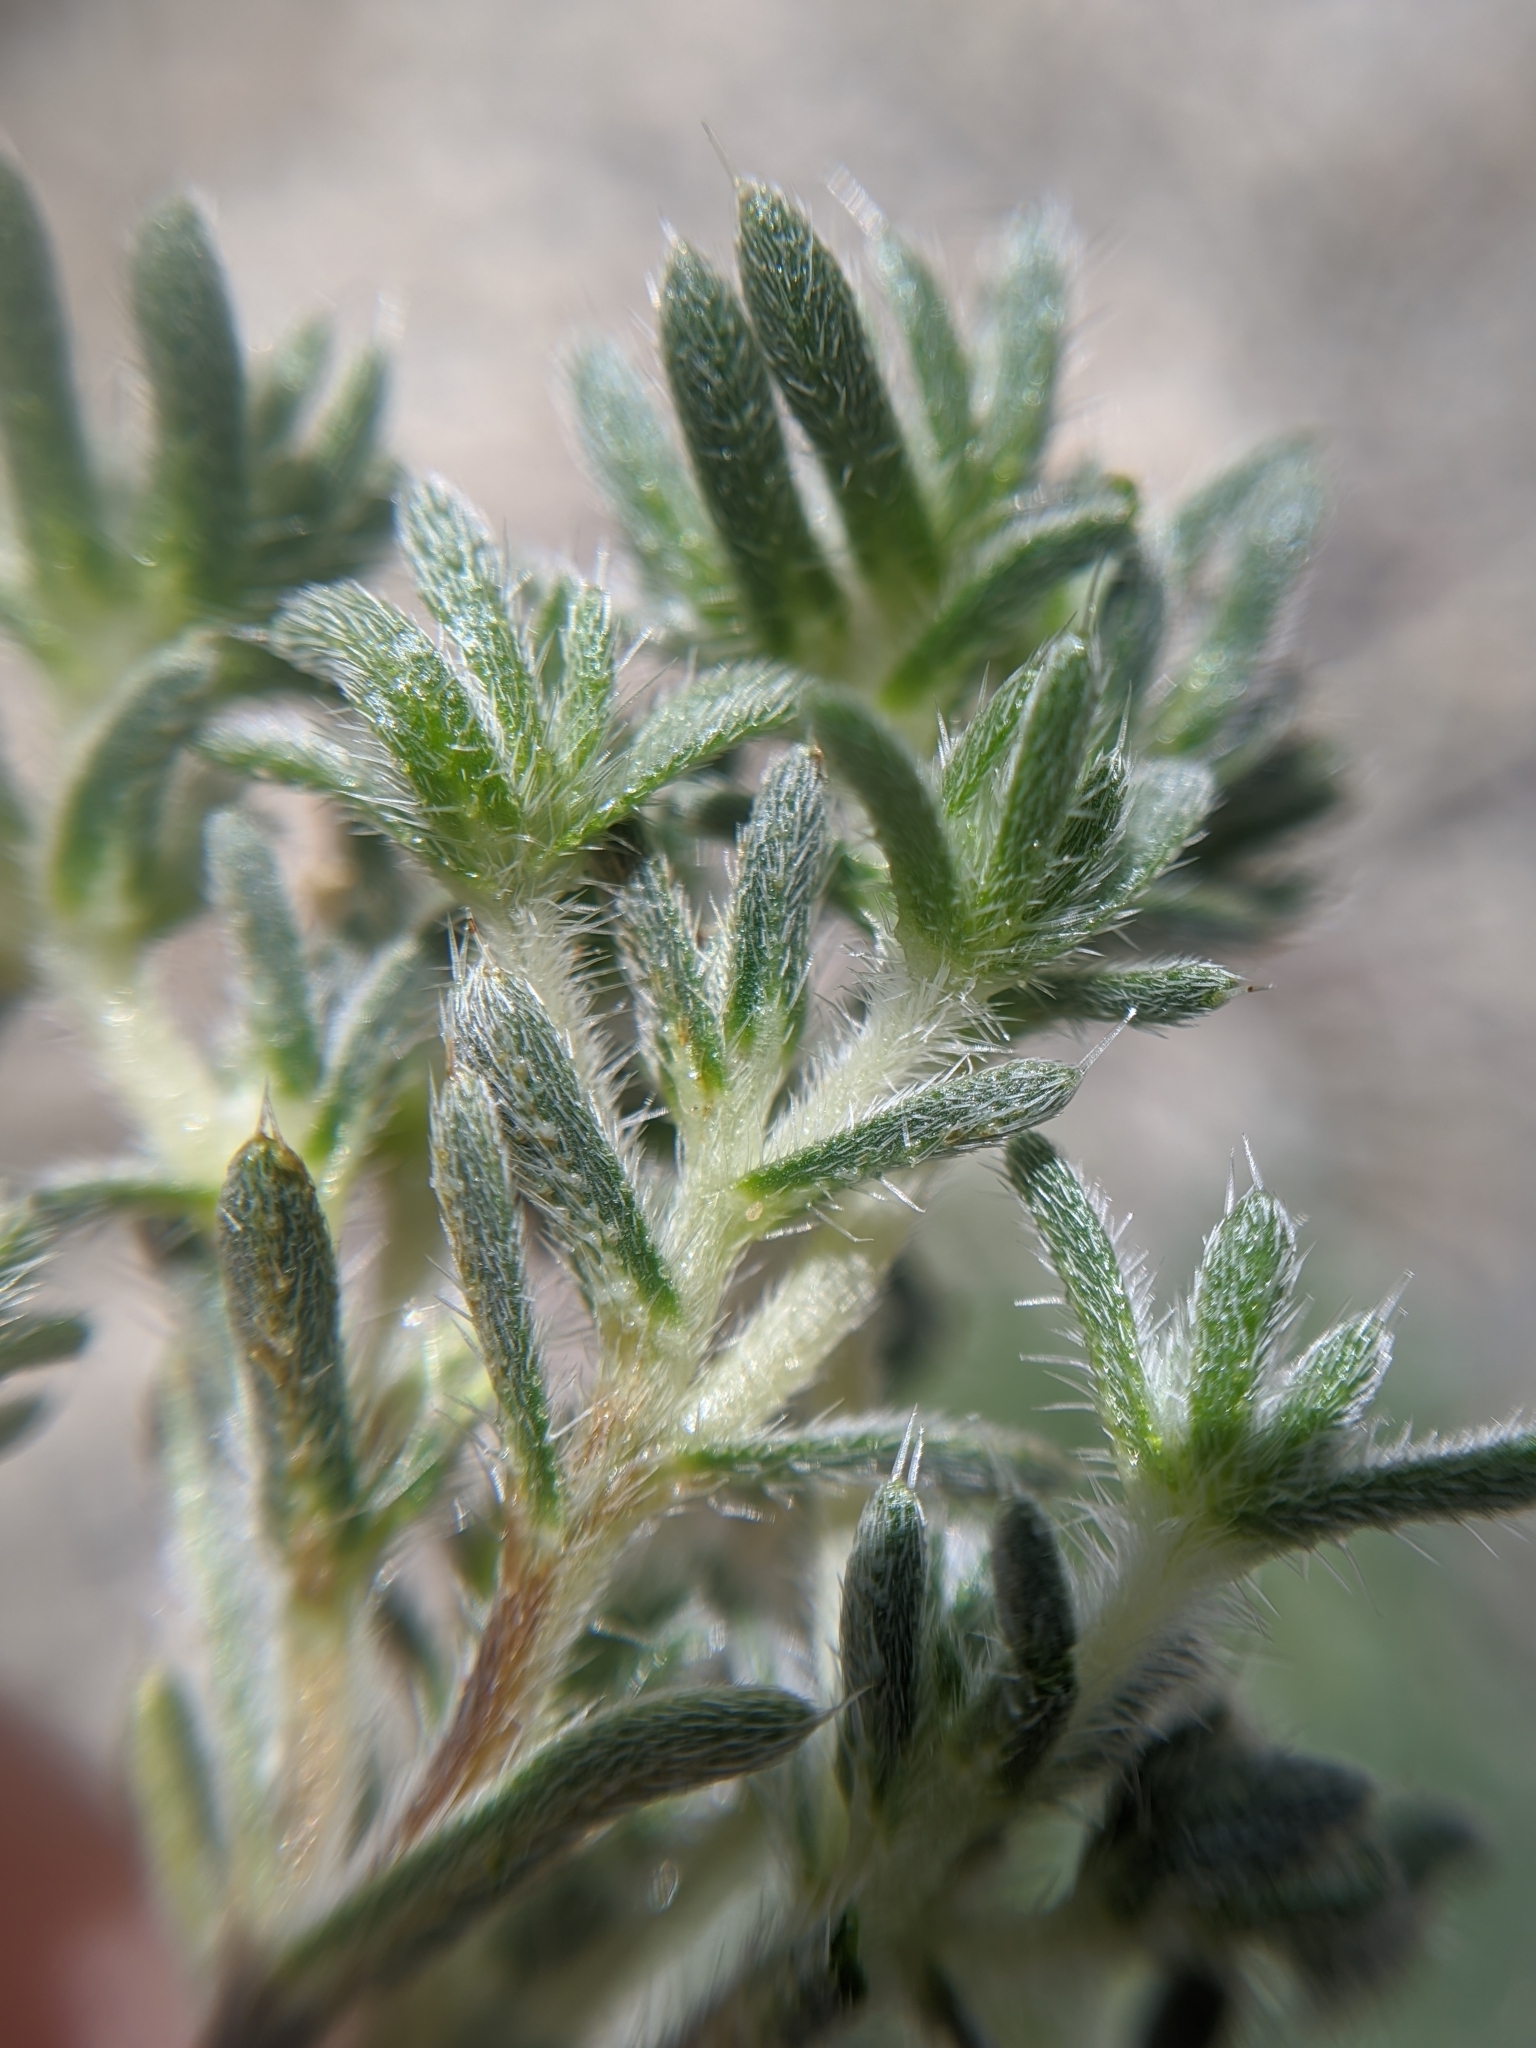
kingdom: Plantae
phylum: Tracheophyta
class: Magnoliopsida
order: Boraginales
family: Boraginaceae
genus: Greeneocharis
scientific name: Greeneocharis circumscissa
